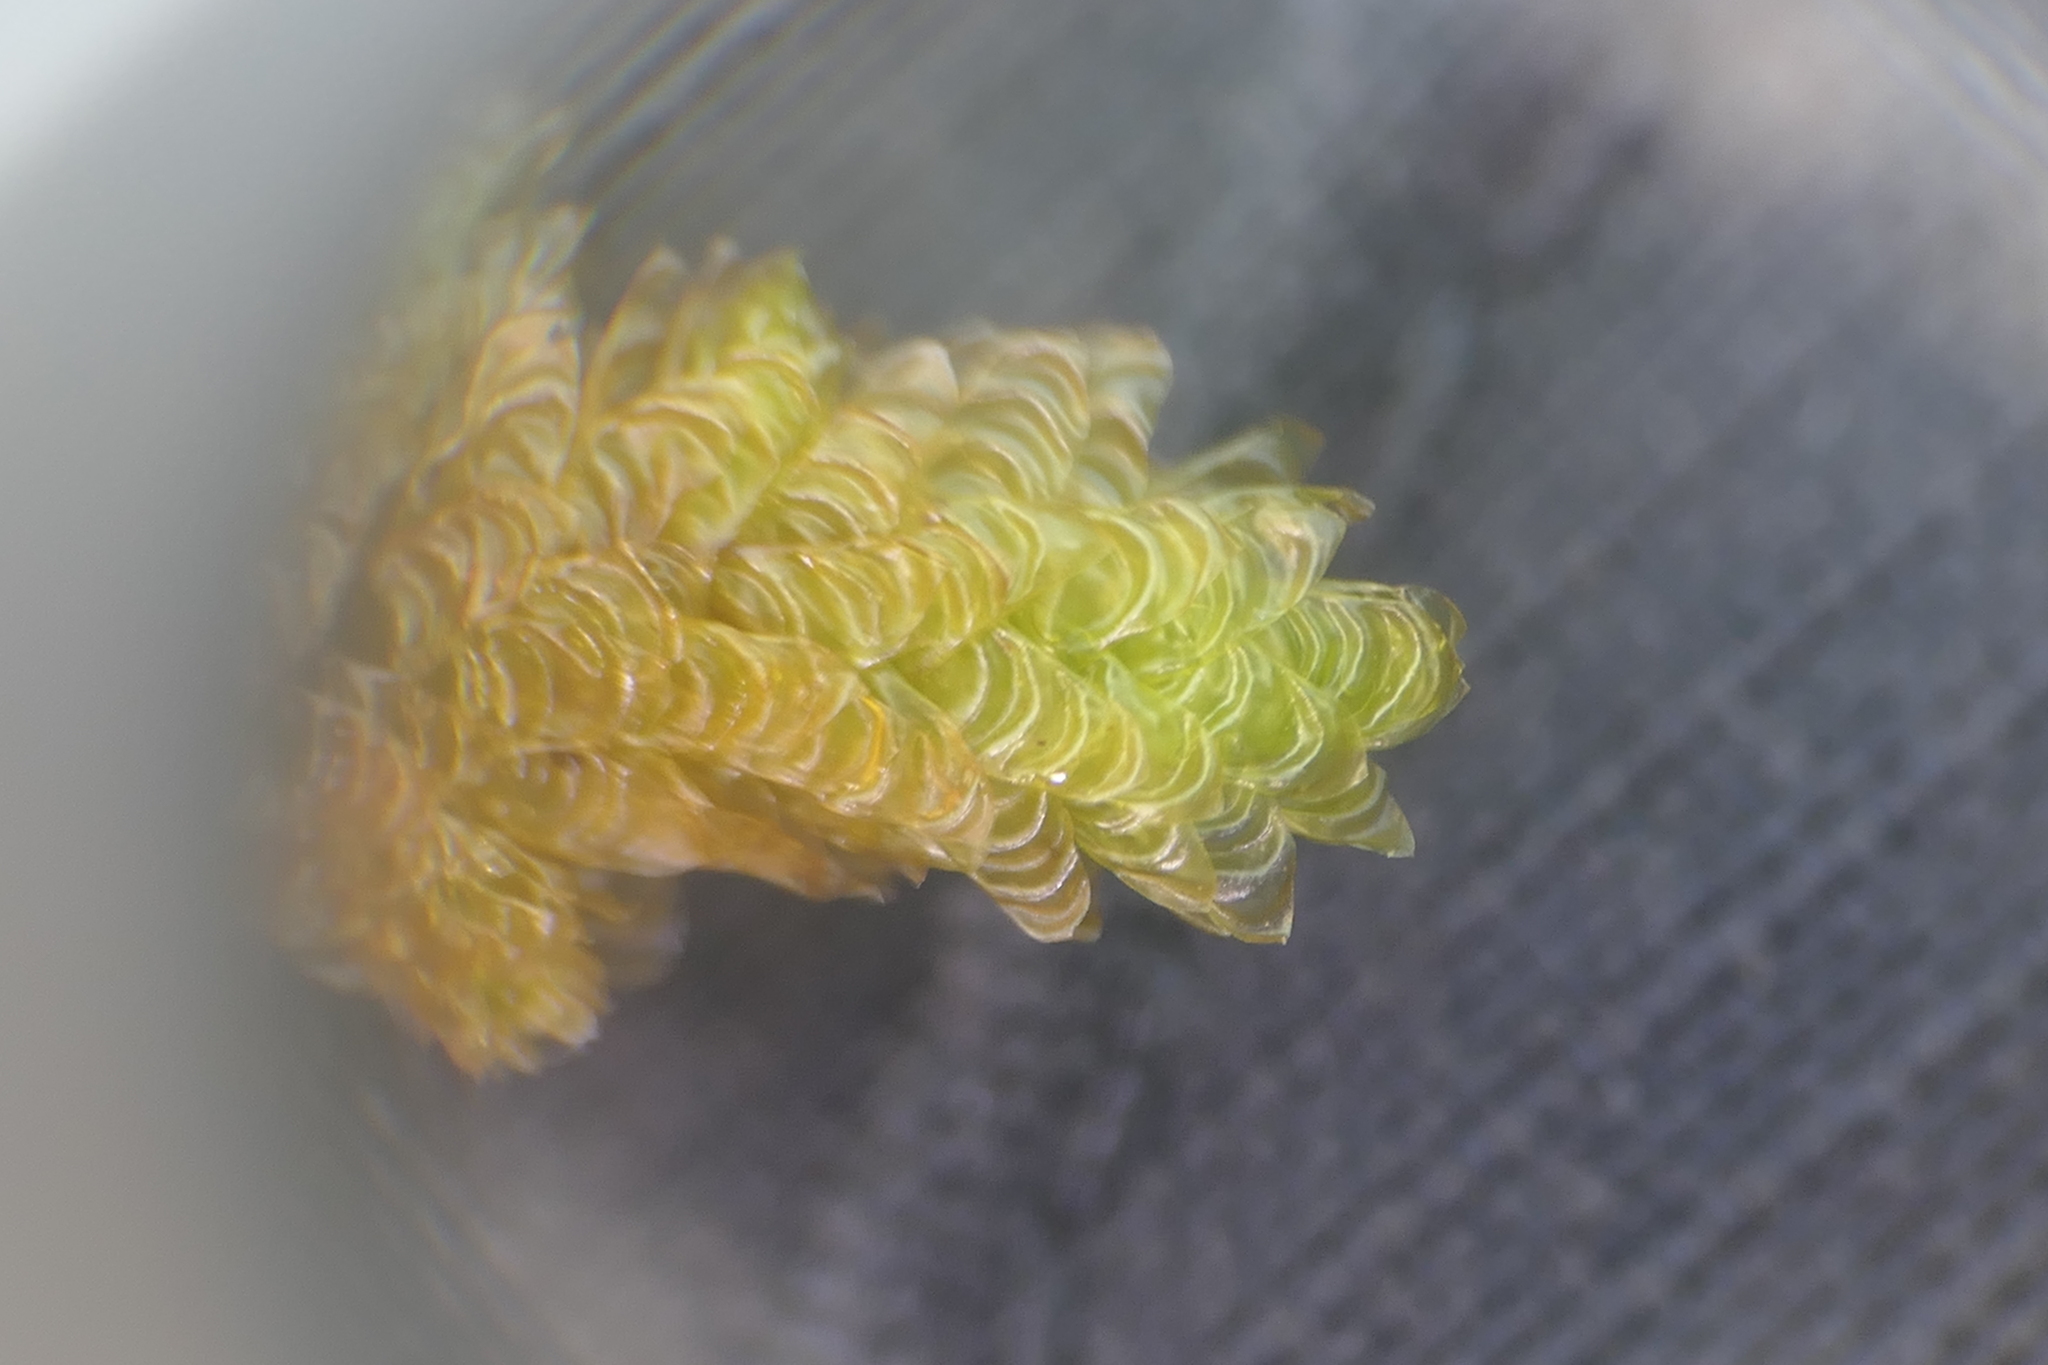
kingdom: Plantae
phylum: Bryophyta
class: Bryopsida
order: Hypnales
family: Neckeraceae
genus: Exsertotheca
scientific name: Exsertotheca crispa
